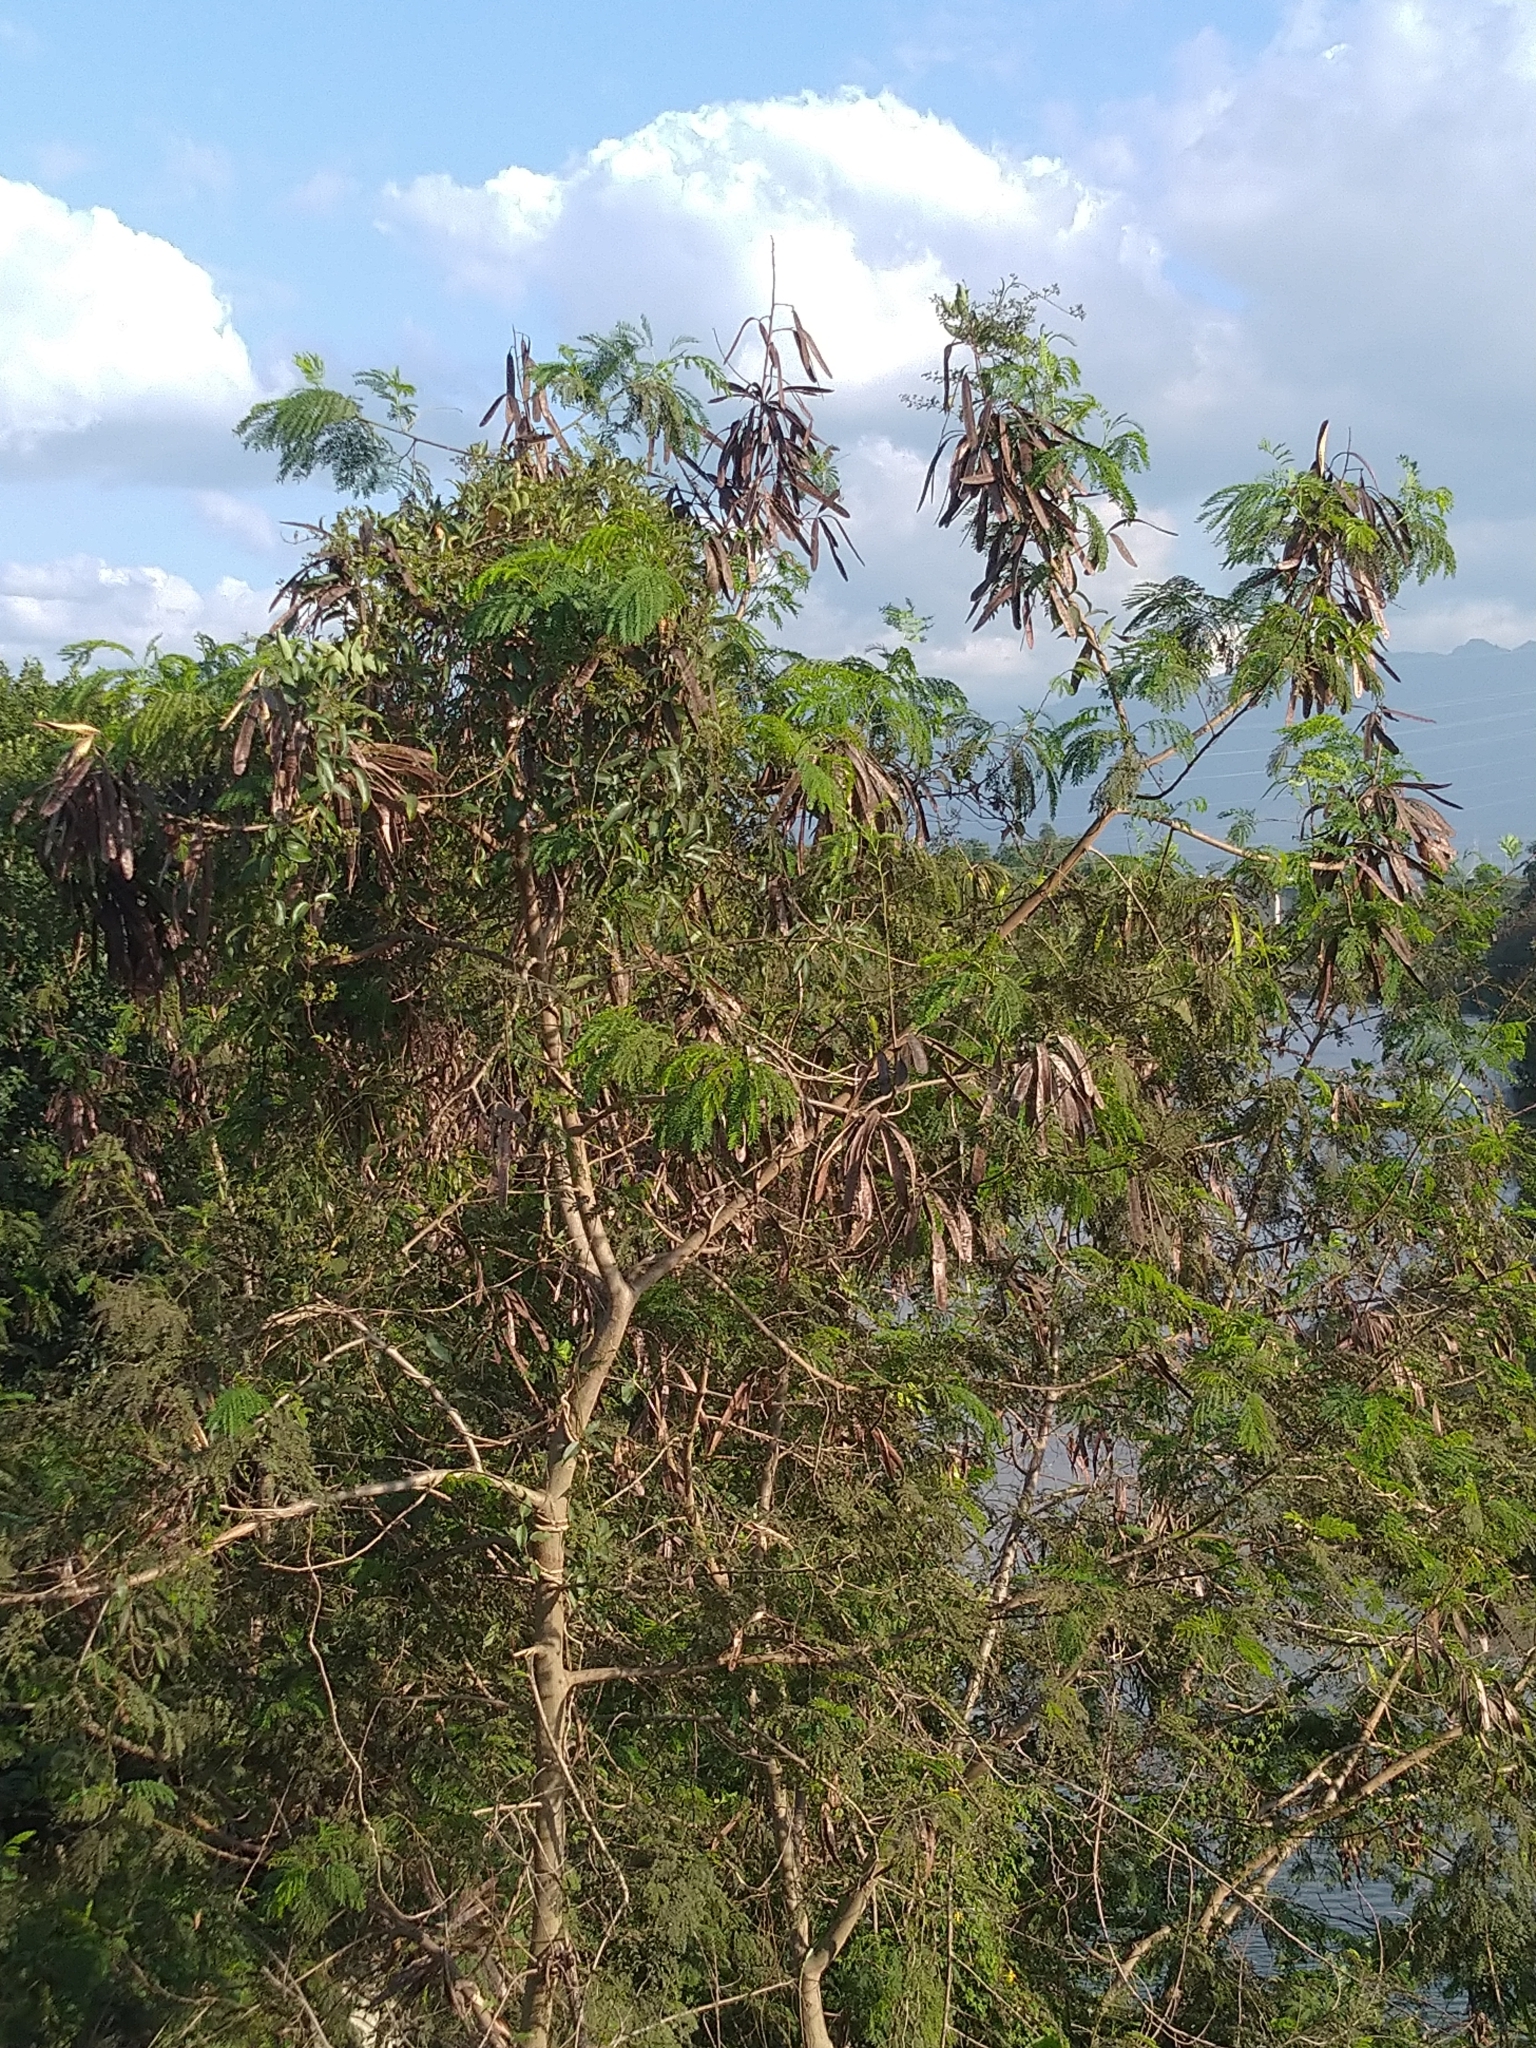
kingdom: Plantae
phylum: Tracheophyta
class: Magnoliopsida
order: Fabales
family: Fabaceae
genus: Leucaena
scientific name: Leucaena leucocephala
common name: White leadtree
